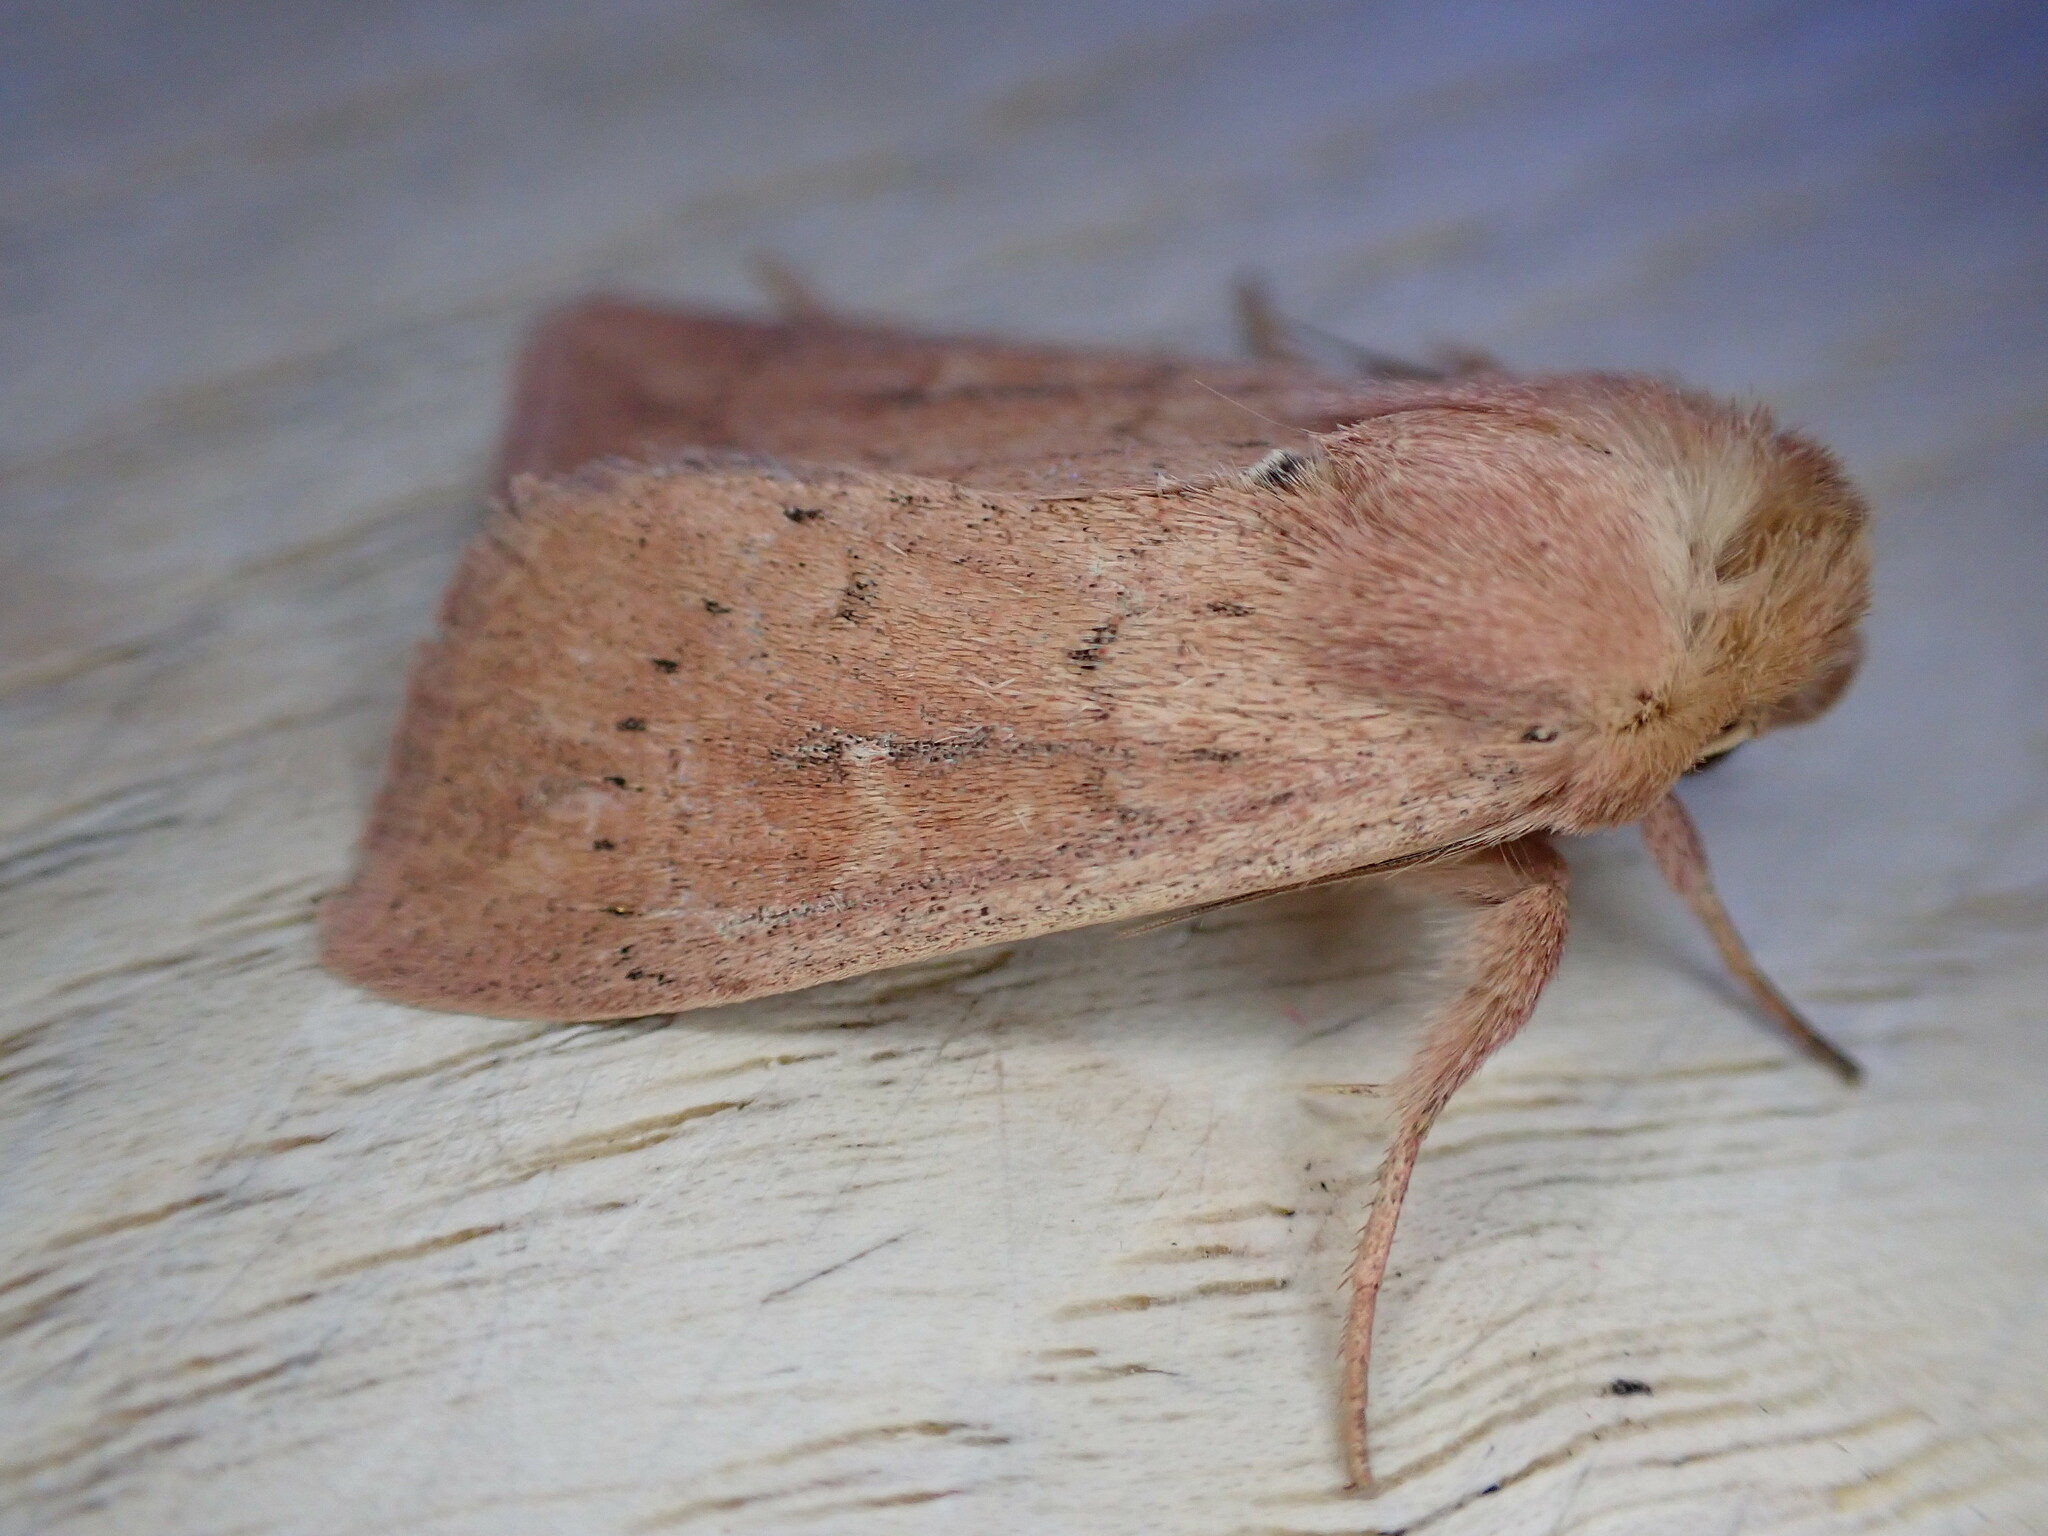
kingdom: Animalia
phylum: Arthropoda
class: Insecta
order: Lepidoptera
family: Noctuidae
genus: Mythimna
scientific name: Mythimna ferrago
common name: Clay
